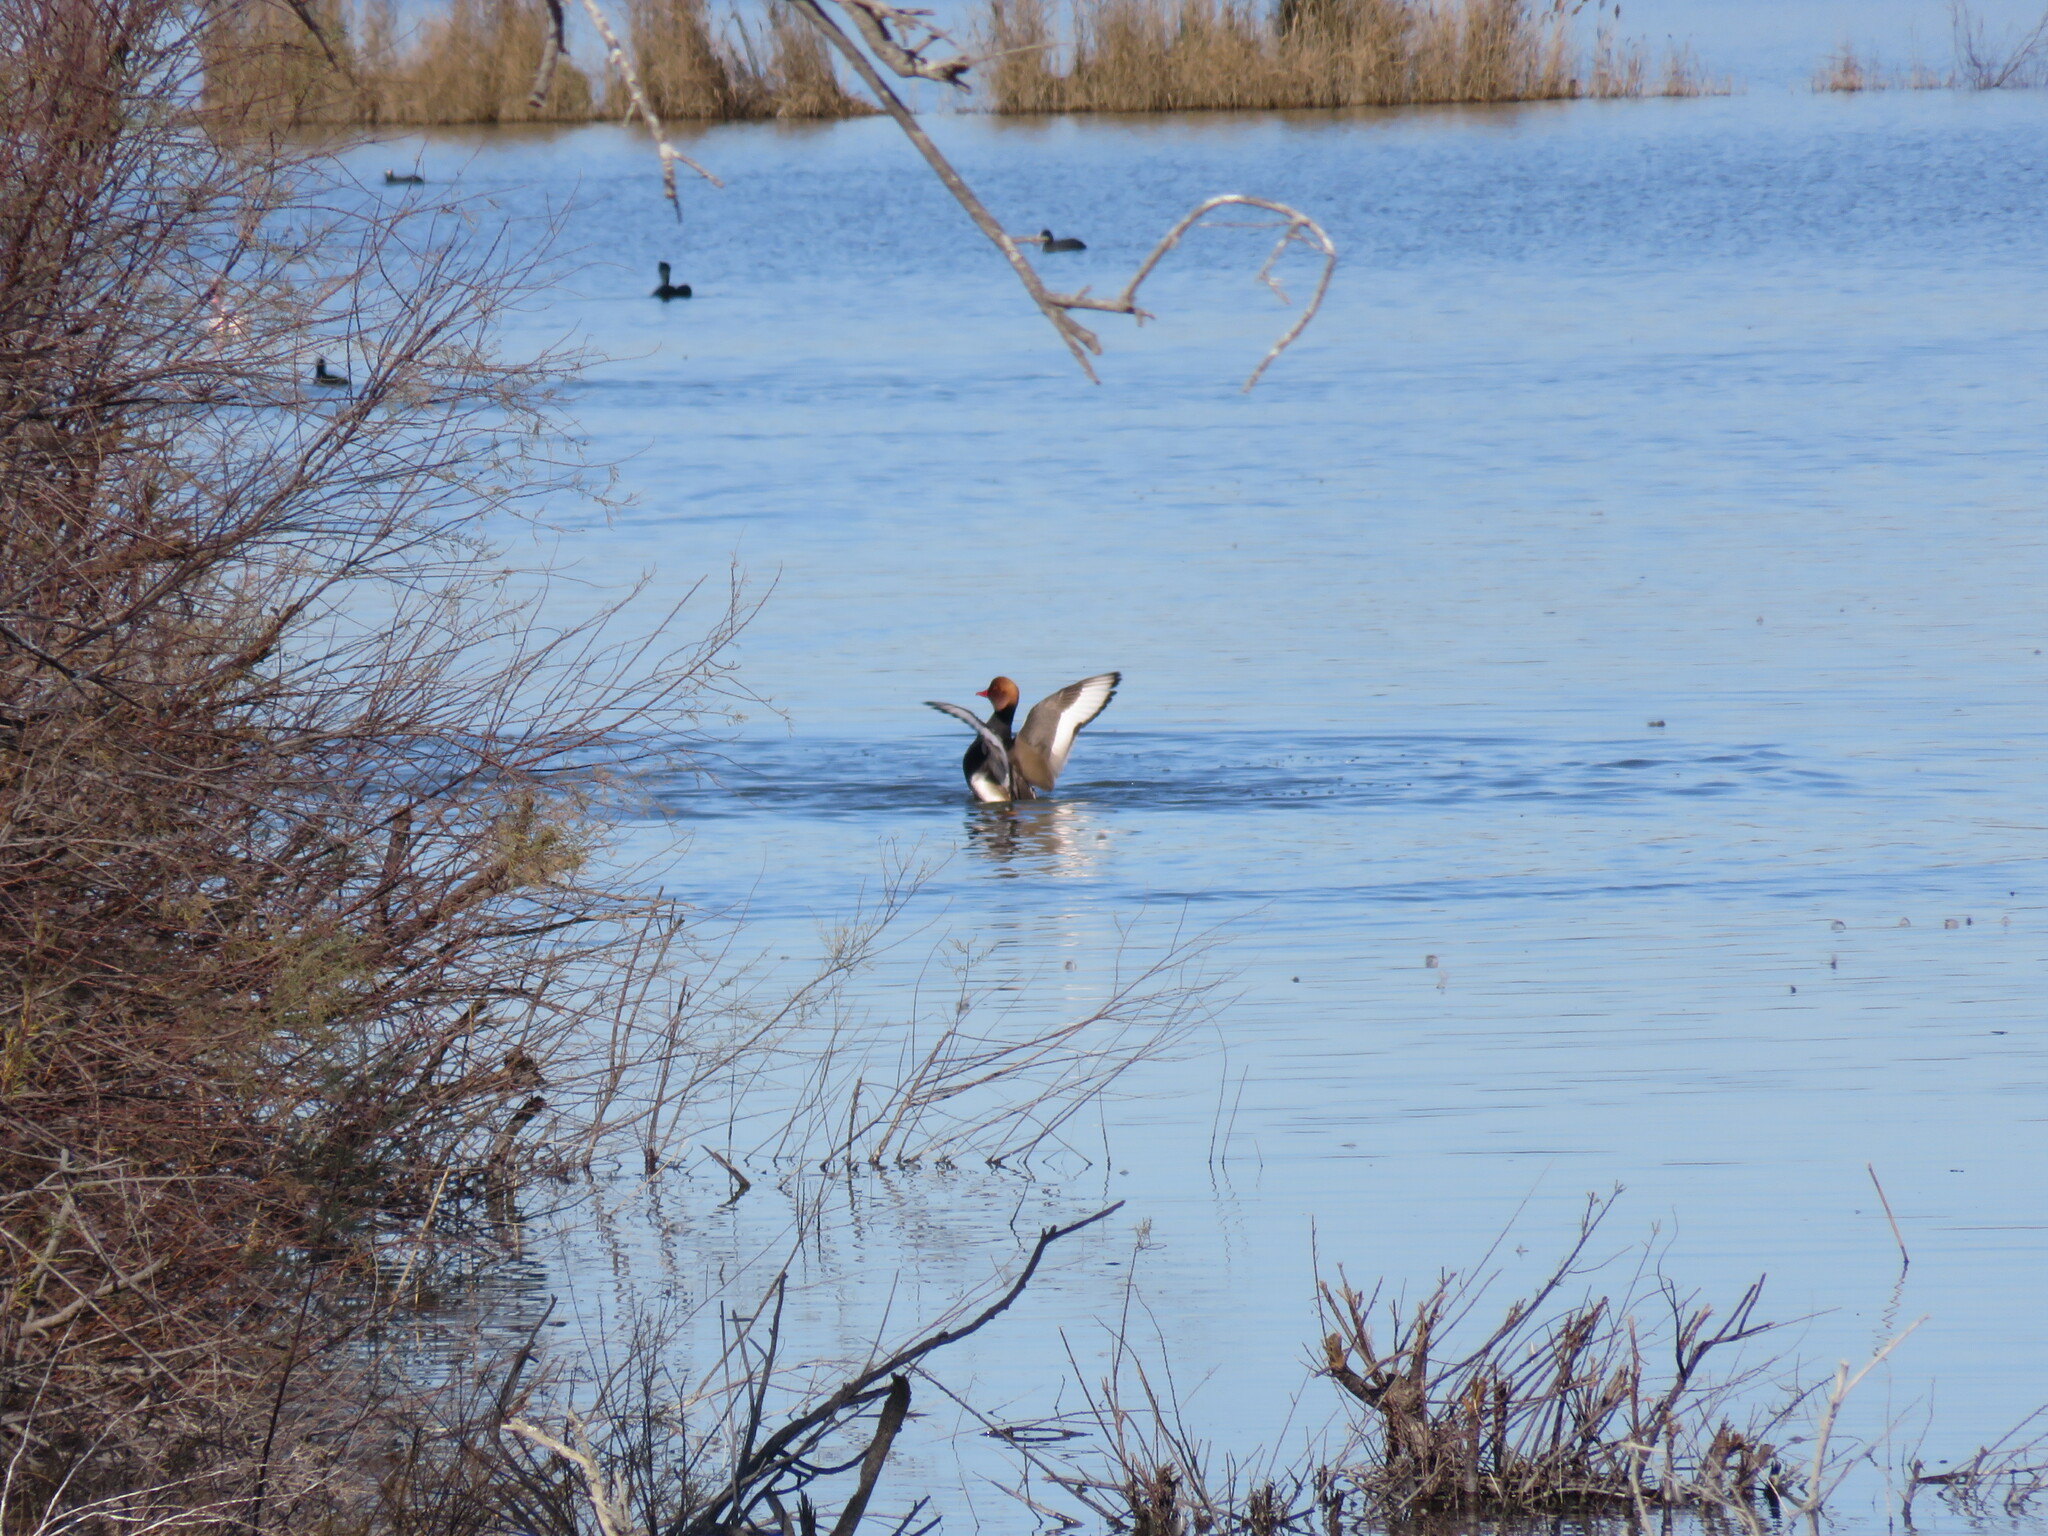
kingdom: Animalia
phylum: Chordata
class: Aves
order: Anseriformes
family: Anatidae
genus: Netta
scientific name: Netta rufina
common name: Red-crested pochard
